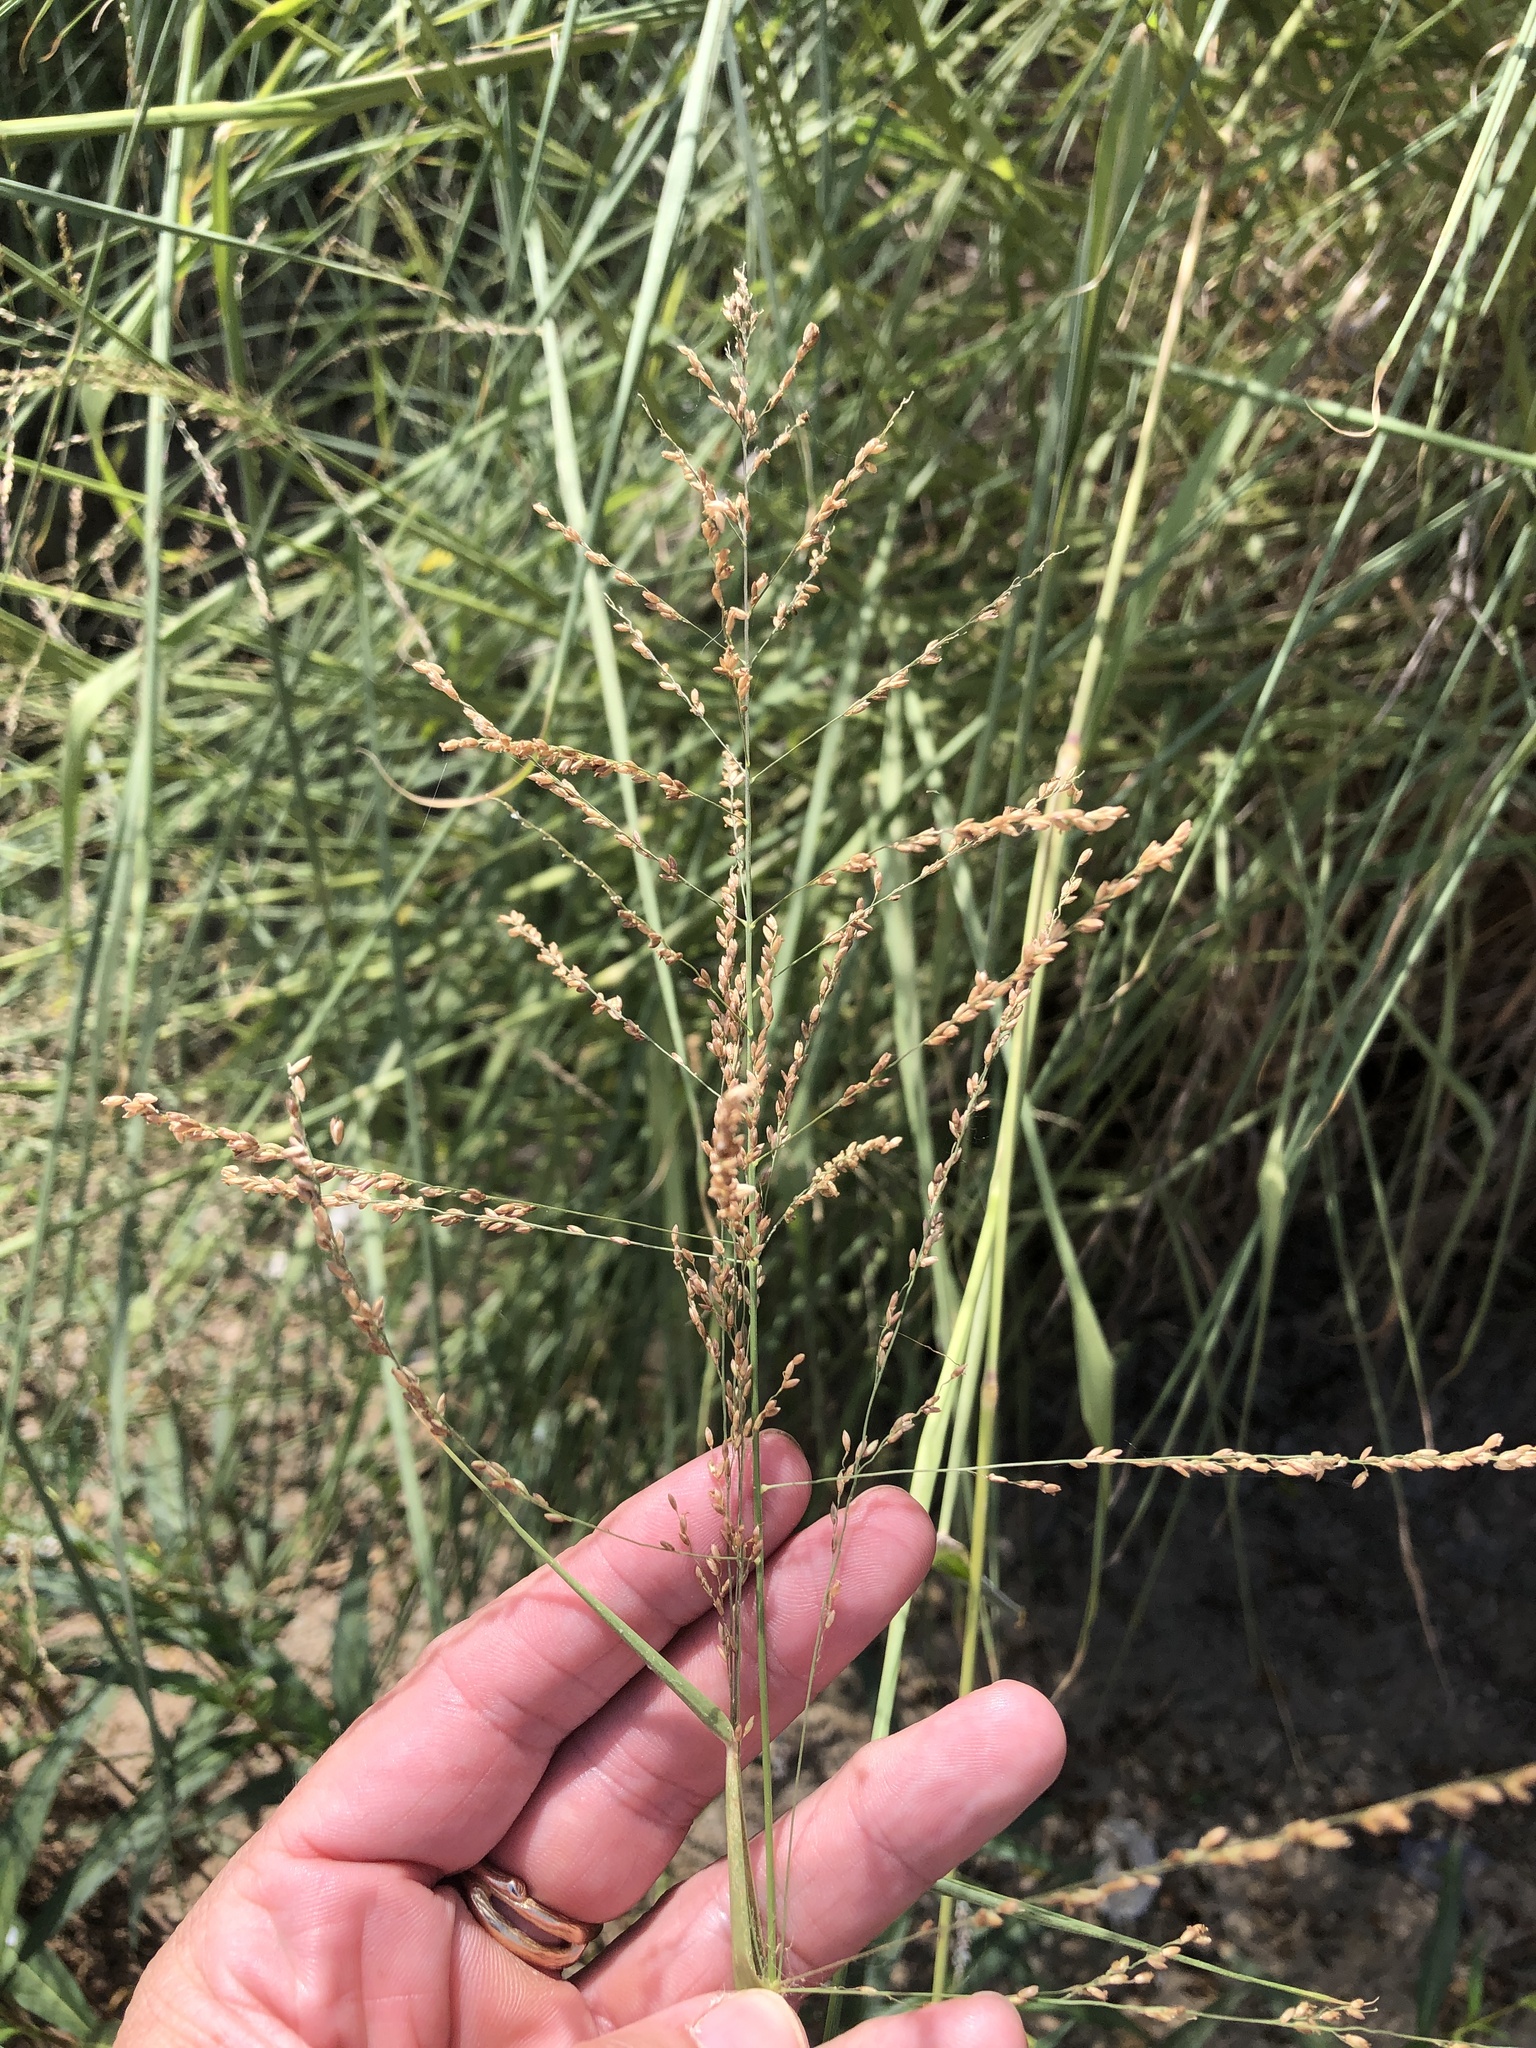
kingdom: Plantae
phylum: Tracheophyta
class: Liliopsida
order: Poales
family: Poaceae
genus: Megathyrsus
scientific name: Megathyrsus maximus
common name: Guineagrass
